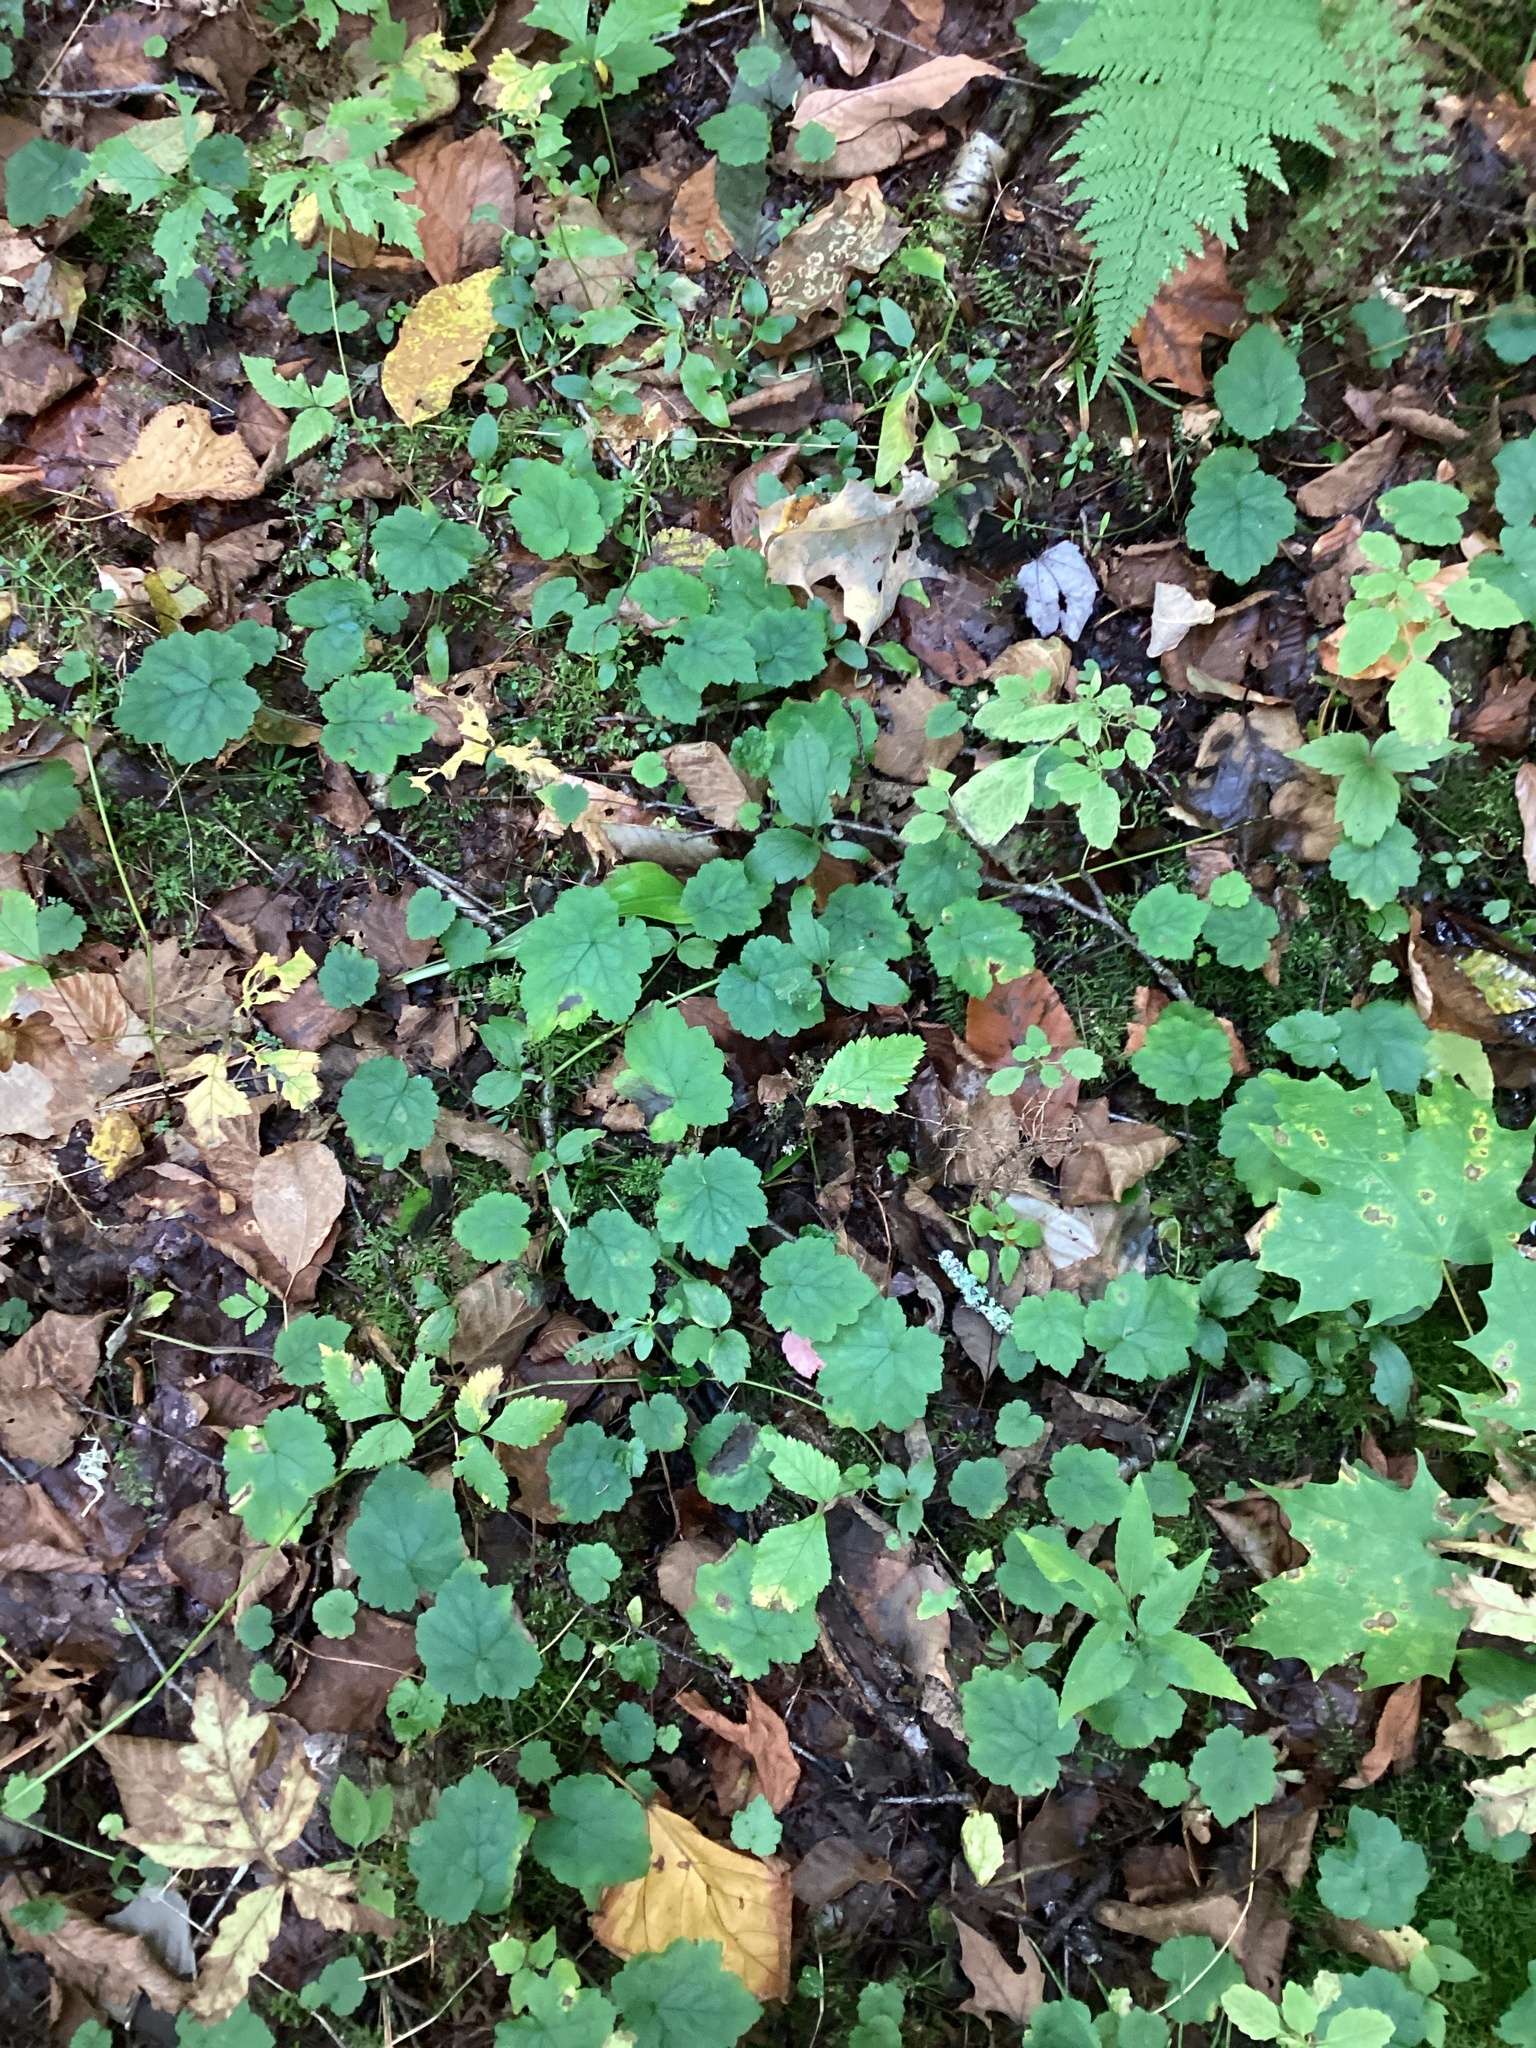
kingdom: Plantae
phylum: Tracheophyta
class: Magnoliopsida
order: Saxifragales
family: Saxifragaceae
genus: Tiarella
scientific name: Tiarella stolonifera
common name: Stoloniferous foamflower
